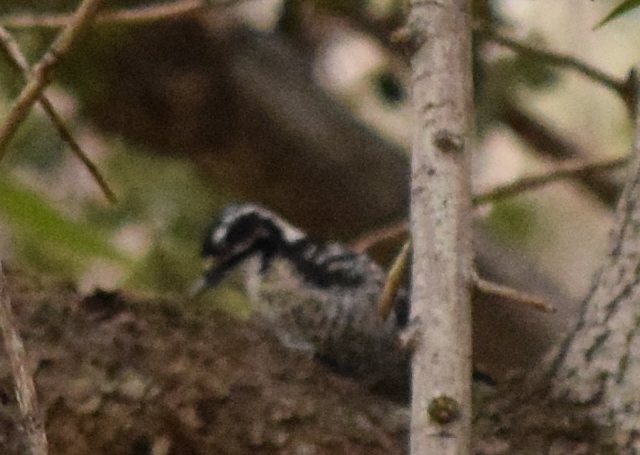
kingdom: Animalia
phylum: Chordata
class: Aves
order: Piciformes
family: Picidae
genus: Dryobates
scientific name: Dryobates nuttallii
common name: Nuttall's woodpecker
